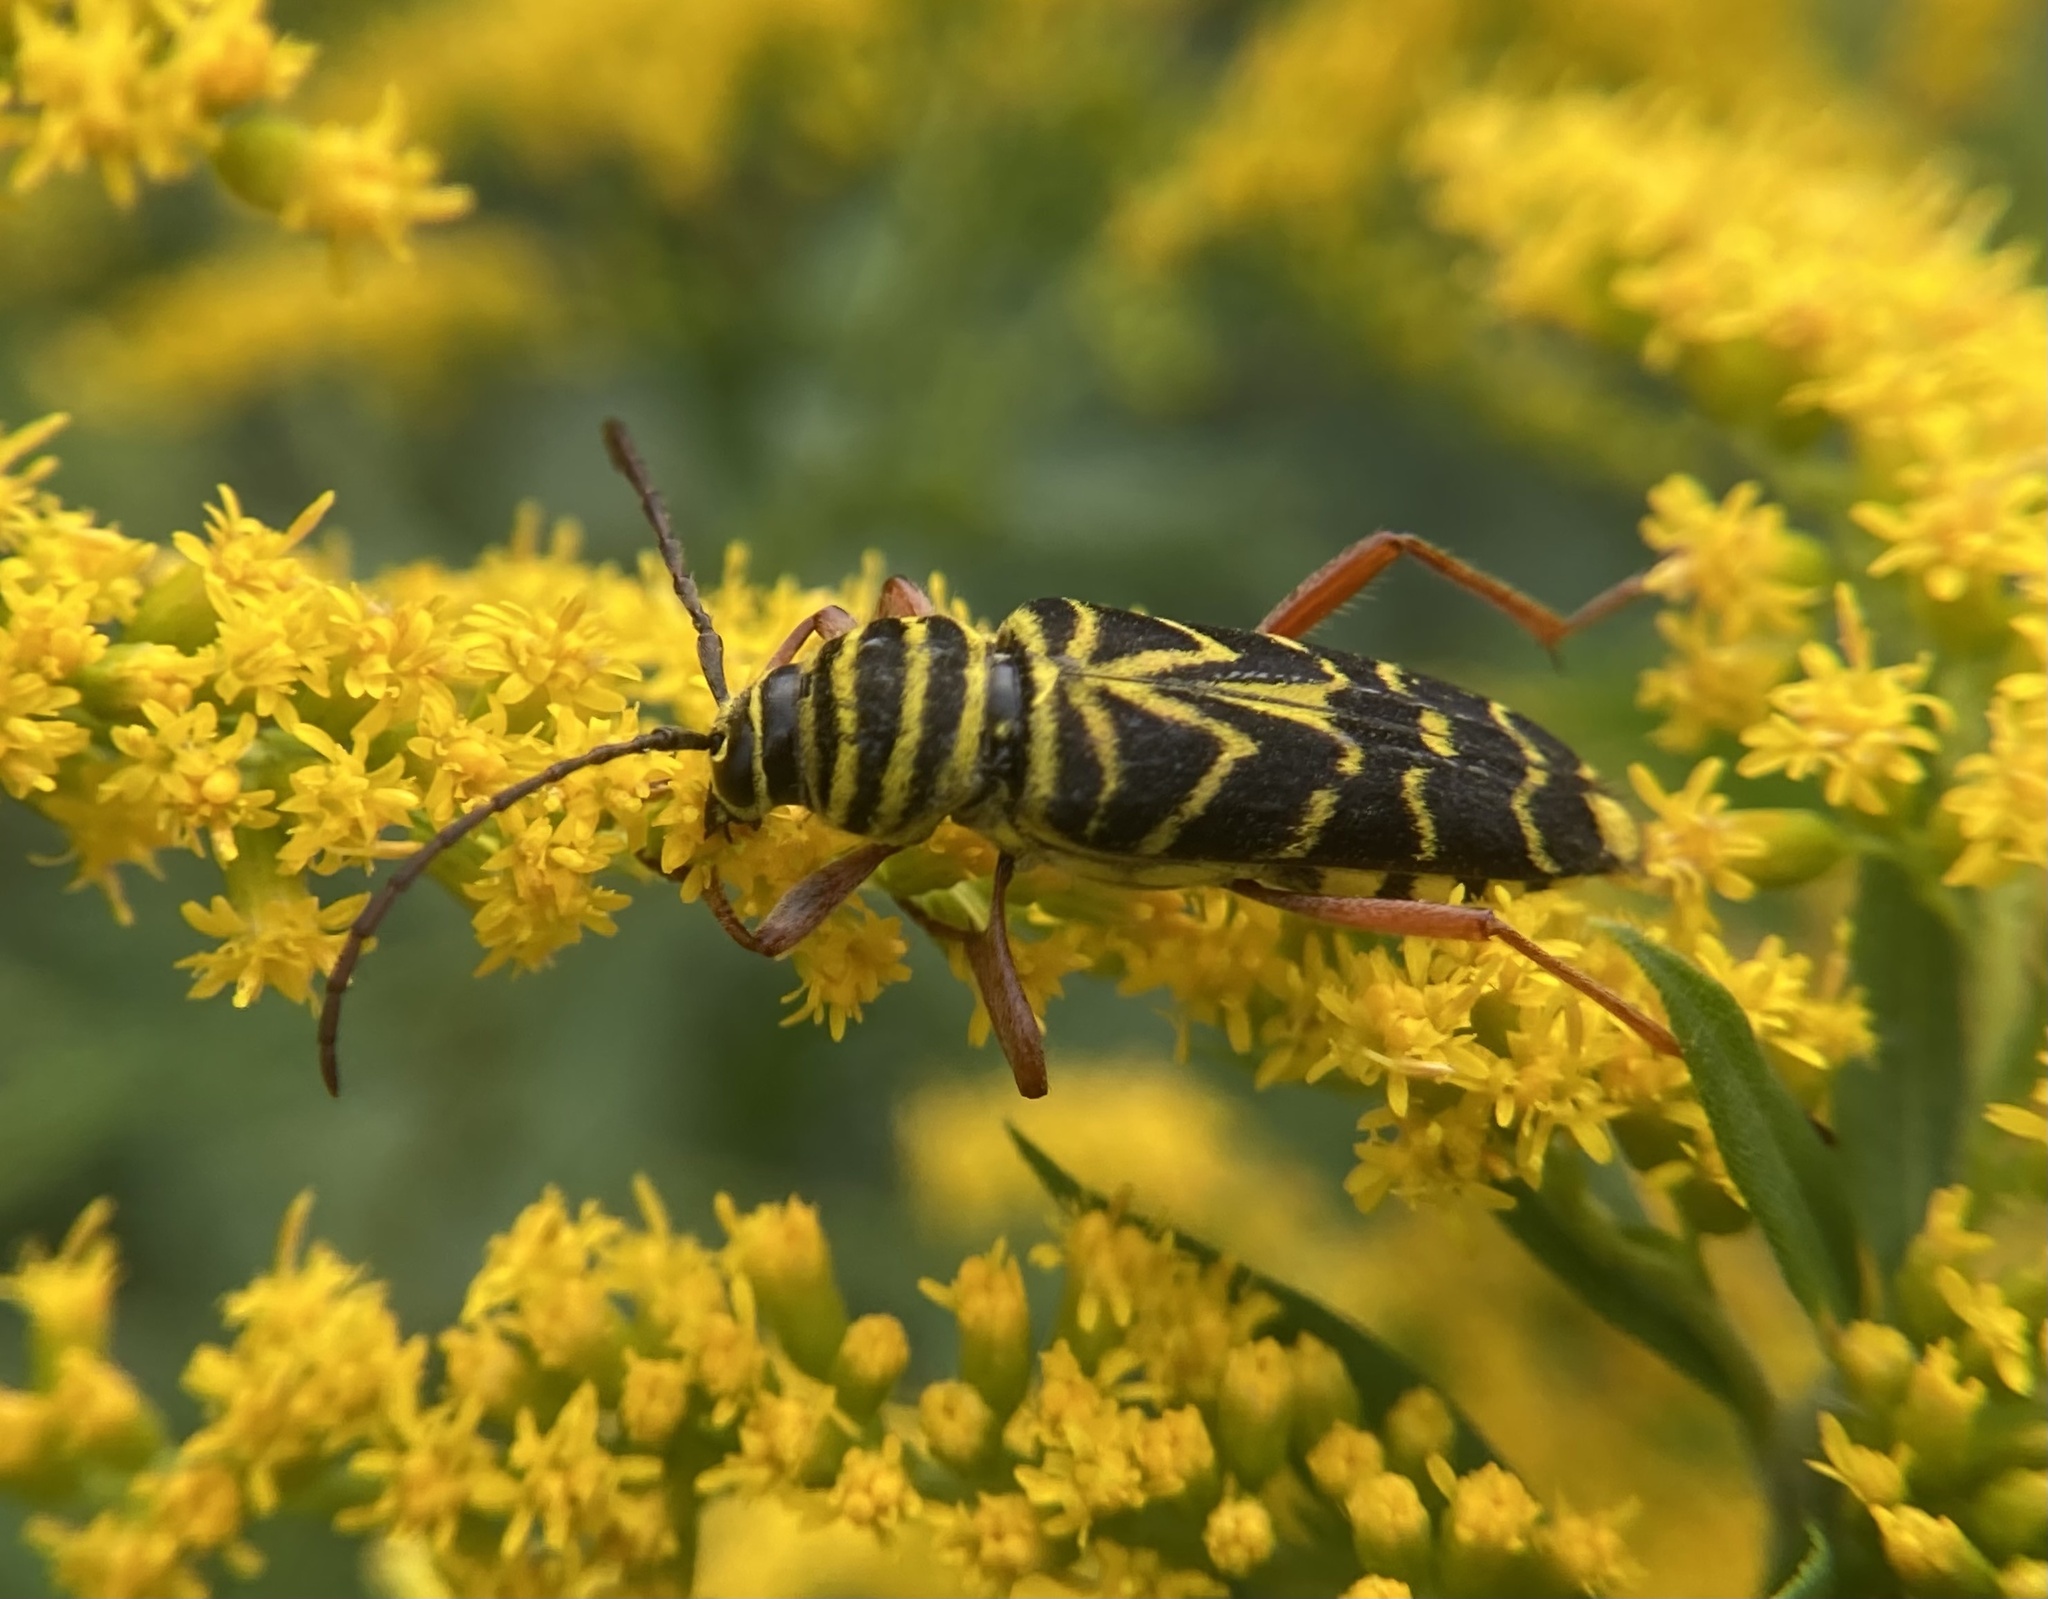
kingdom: Animalia
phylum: Arthropoda
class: Insecta
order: Coleoptera
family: Cerambycidae
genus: Megacyllene
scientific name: Megacyllene robiniae
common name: Locust borer
